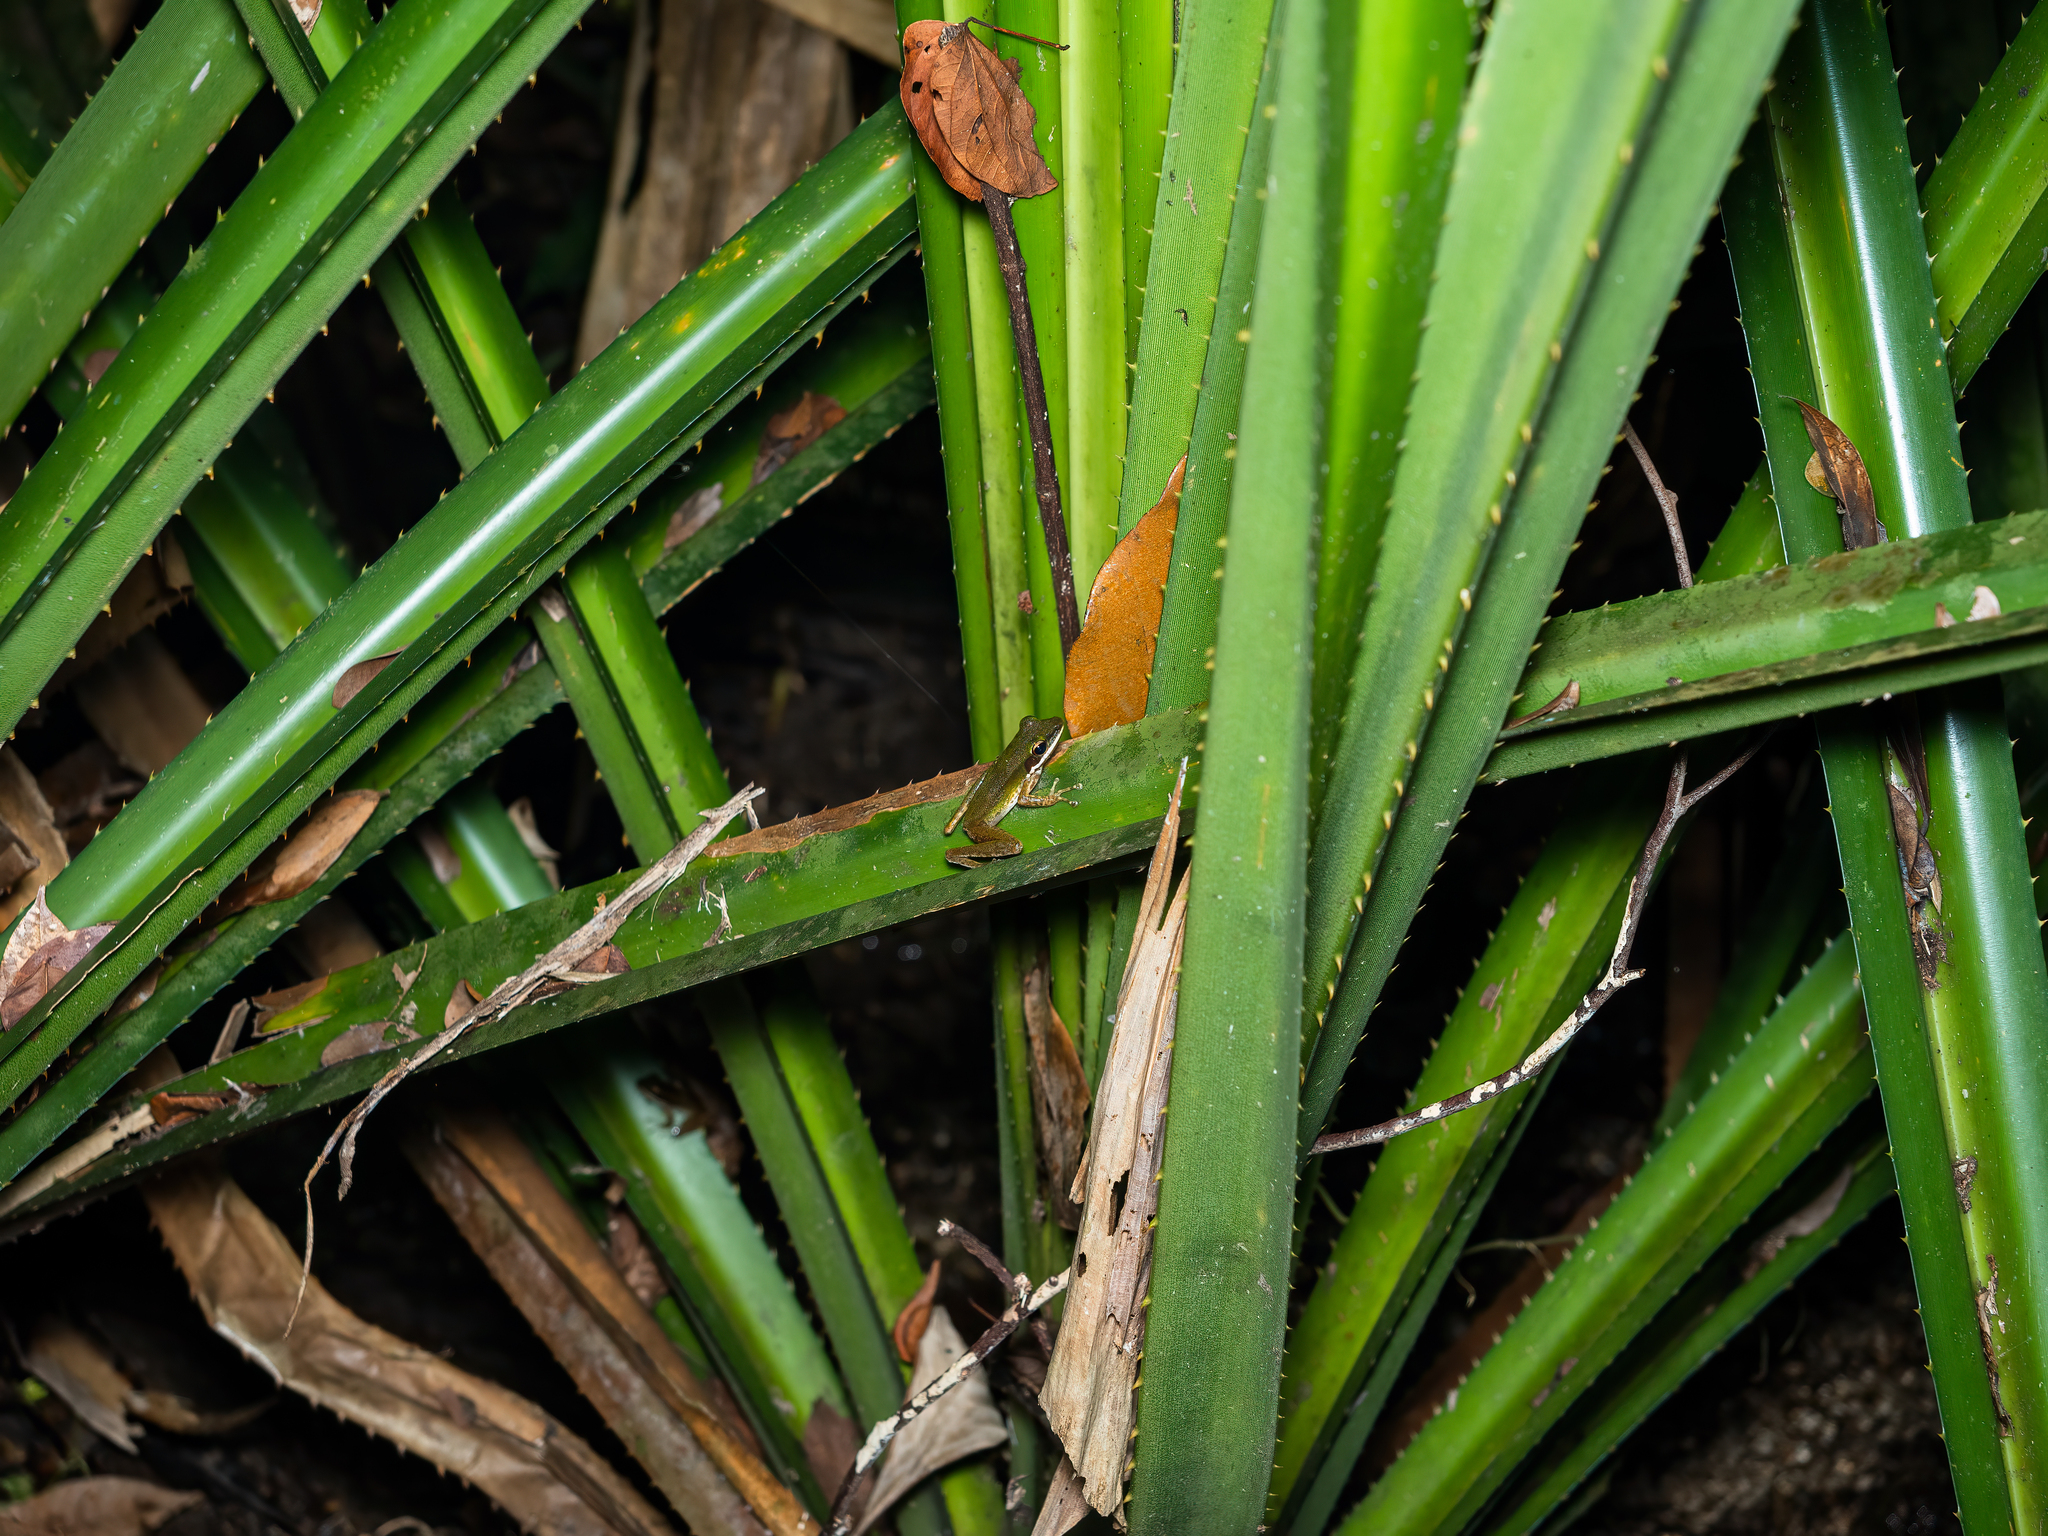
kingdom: Animalia
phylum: Chordata
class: Amphibia
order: Anura
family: Ranidae
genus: Chalcorana
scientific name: Chalcorana labialis
